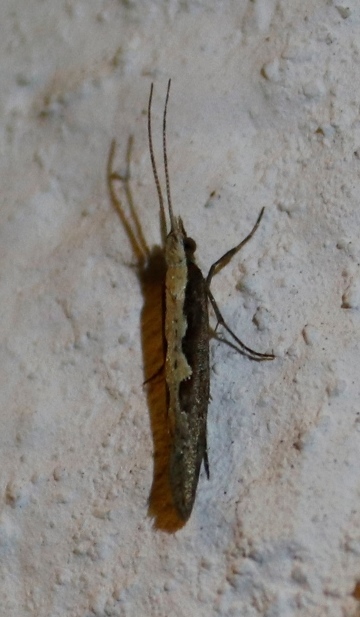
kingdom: Animalia
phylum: Arthropoda
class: Insecta
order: Lepidoptera
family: Plutellidae
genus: Plutella
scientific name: Plutella xylostella
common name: Diamond-back moth
